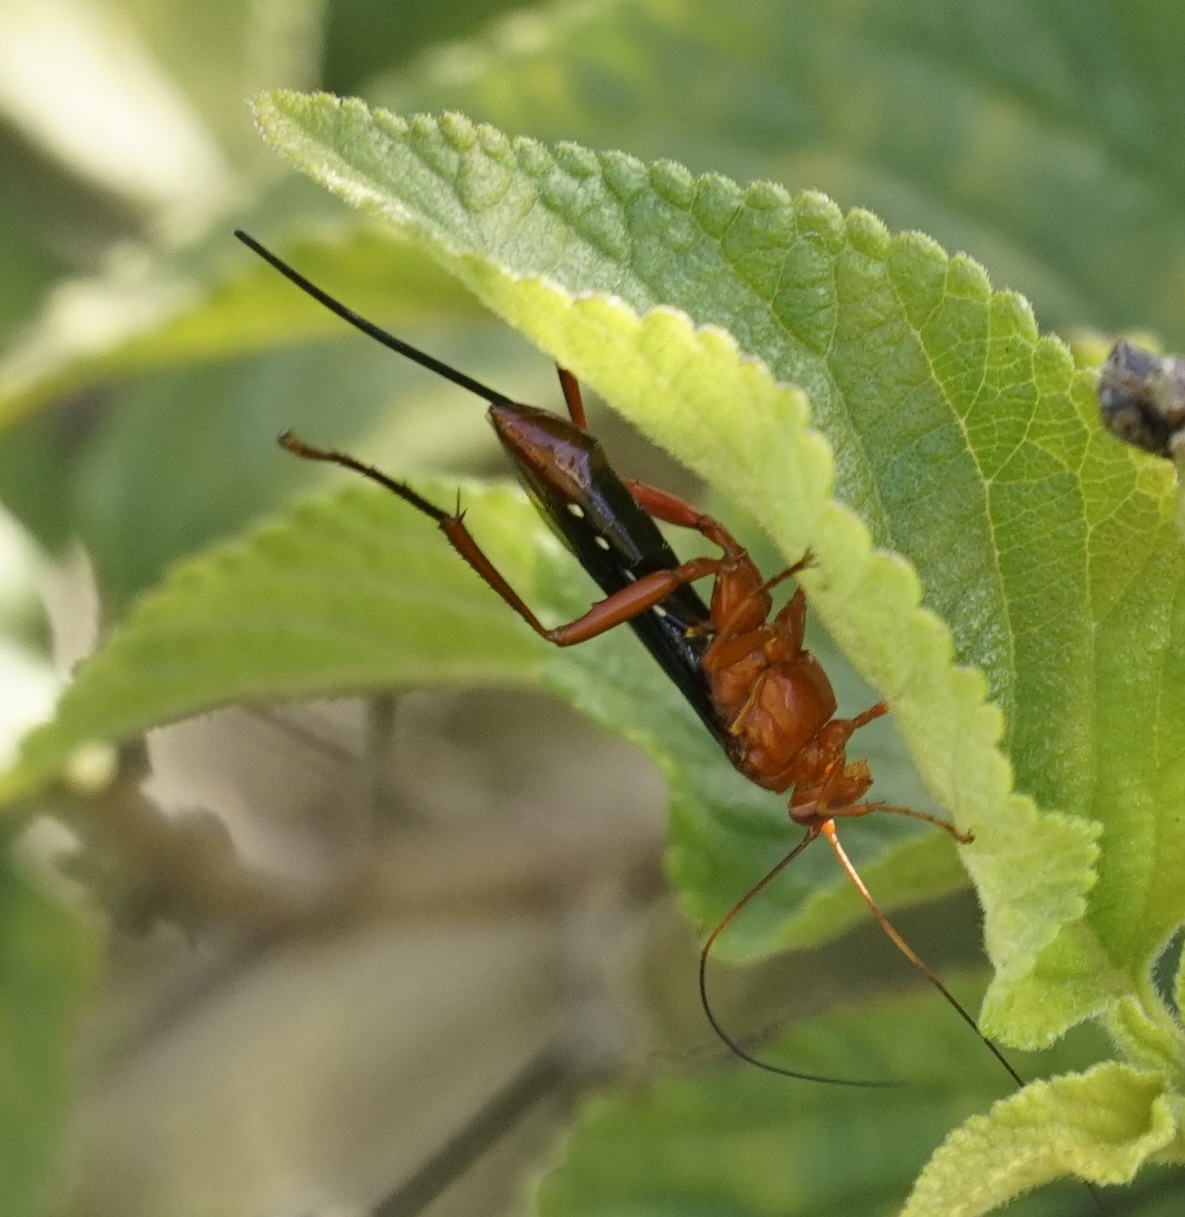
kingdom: Animalia
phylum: Arthropoda
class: Insecta
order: Hymenoptera
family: Ichneumonidae
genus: Lissopimpla
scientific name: Lissopimpla excelsa
